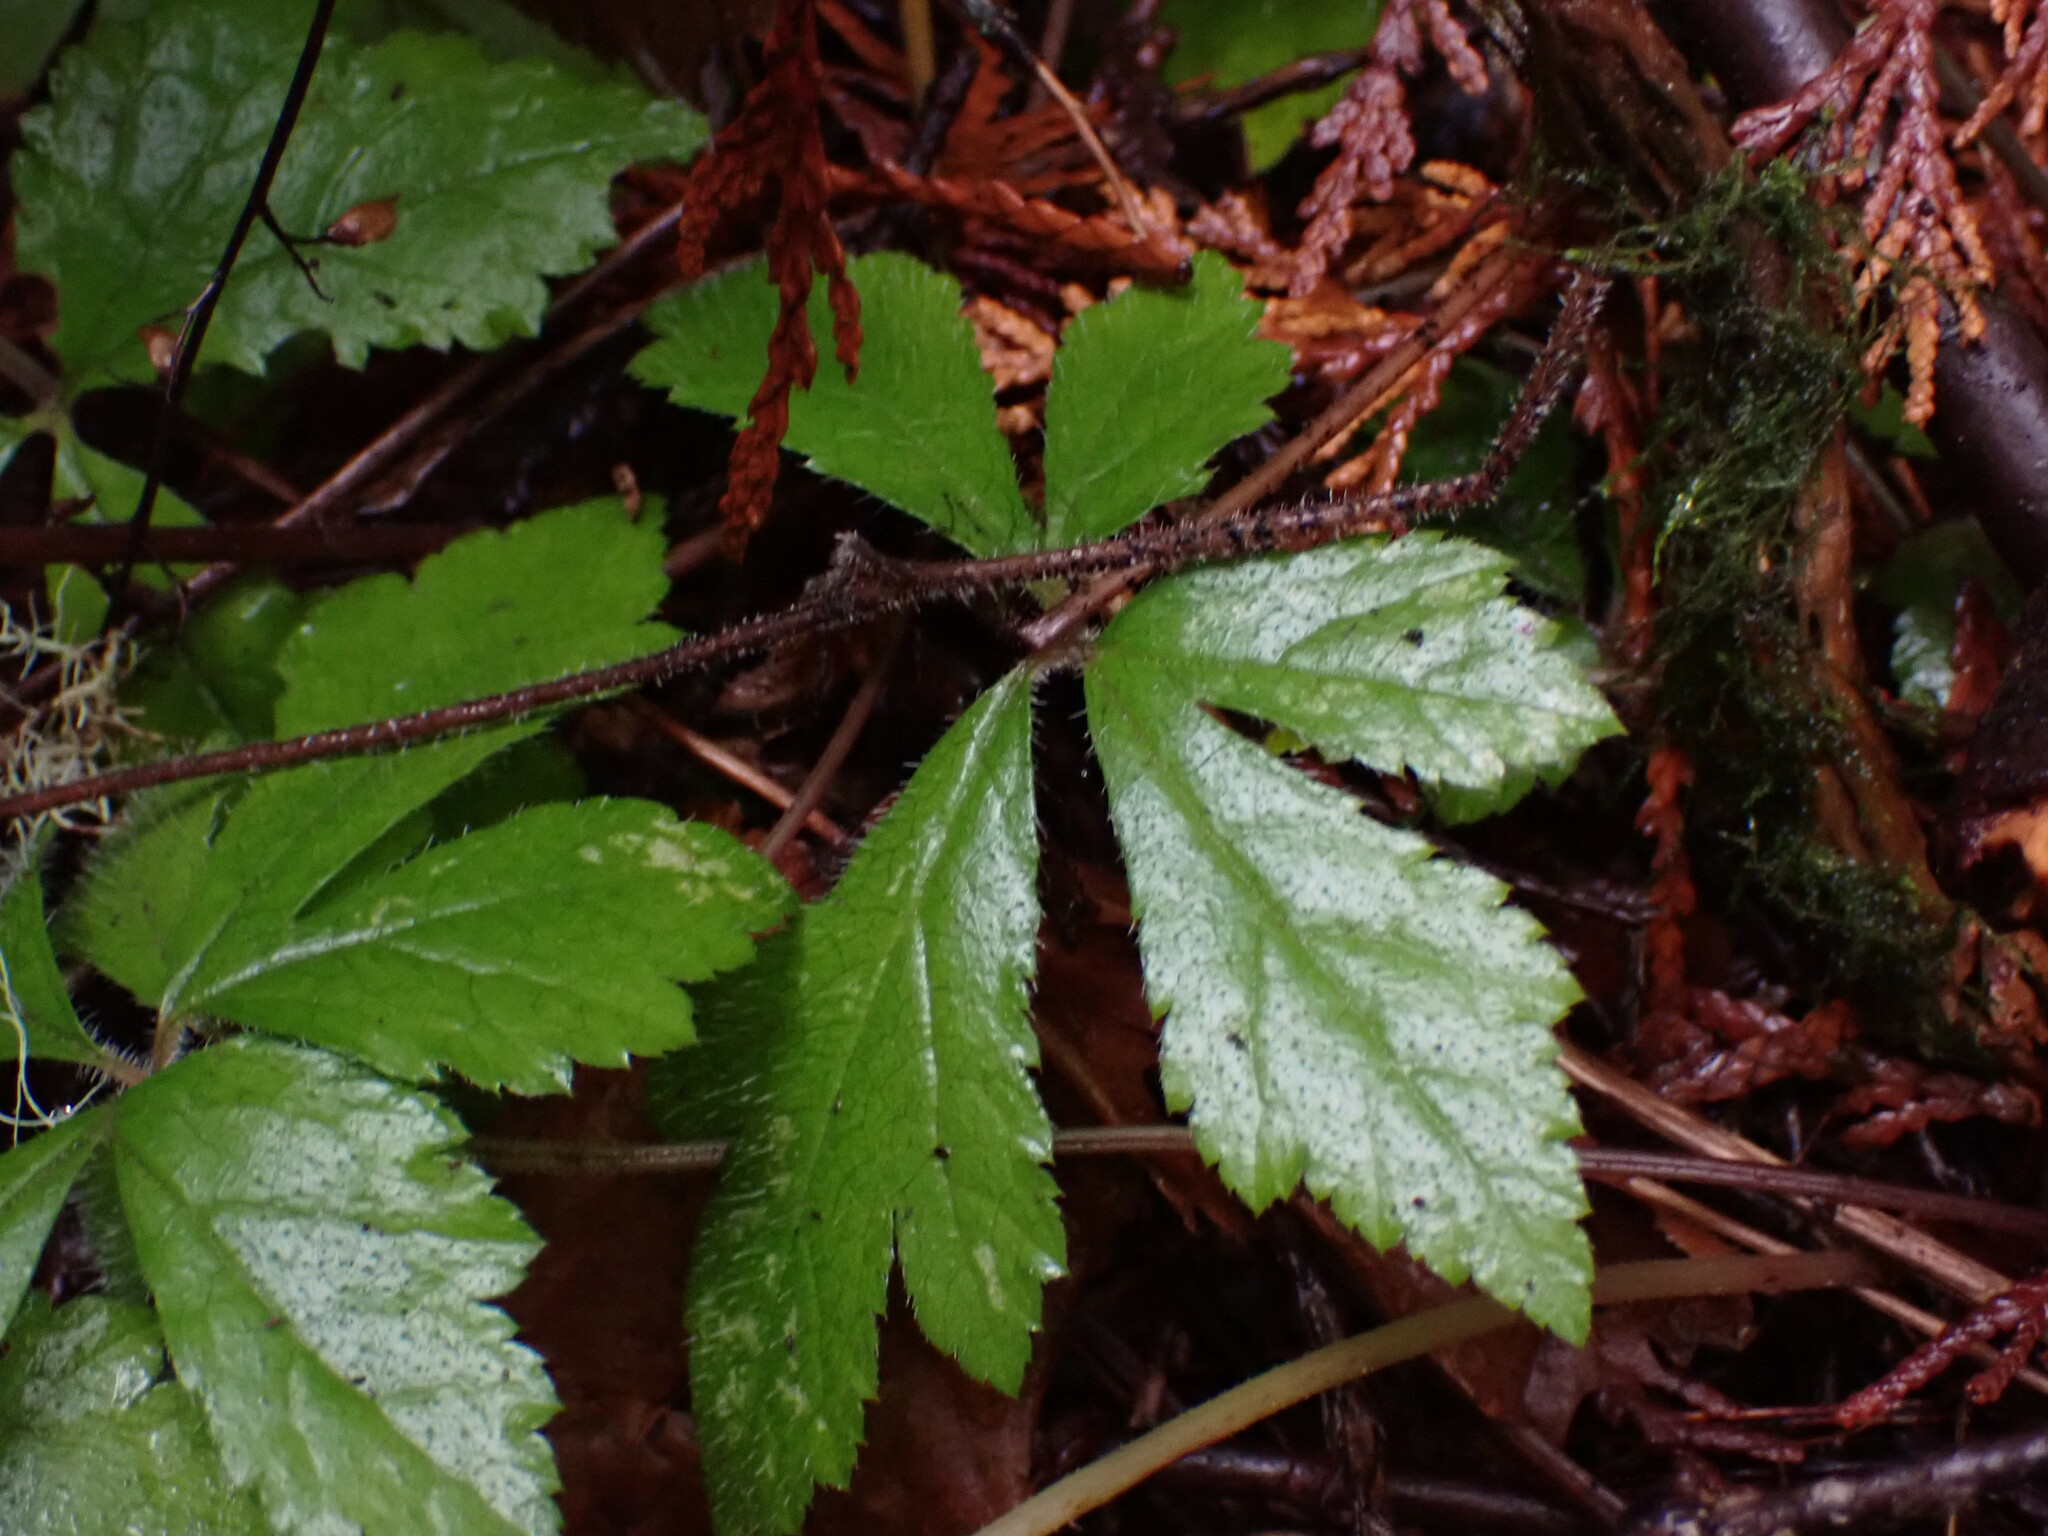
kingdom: Plantae
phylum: Tracheophyta
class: Magnoliopsida
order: Saxifragales
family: Saxifragaceae
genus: Tiarella
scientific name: Tiarella trifoliata
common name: Sugar-scoop
